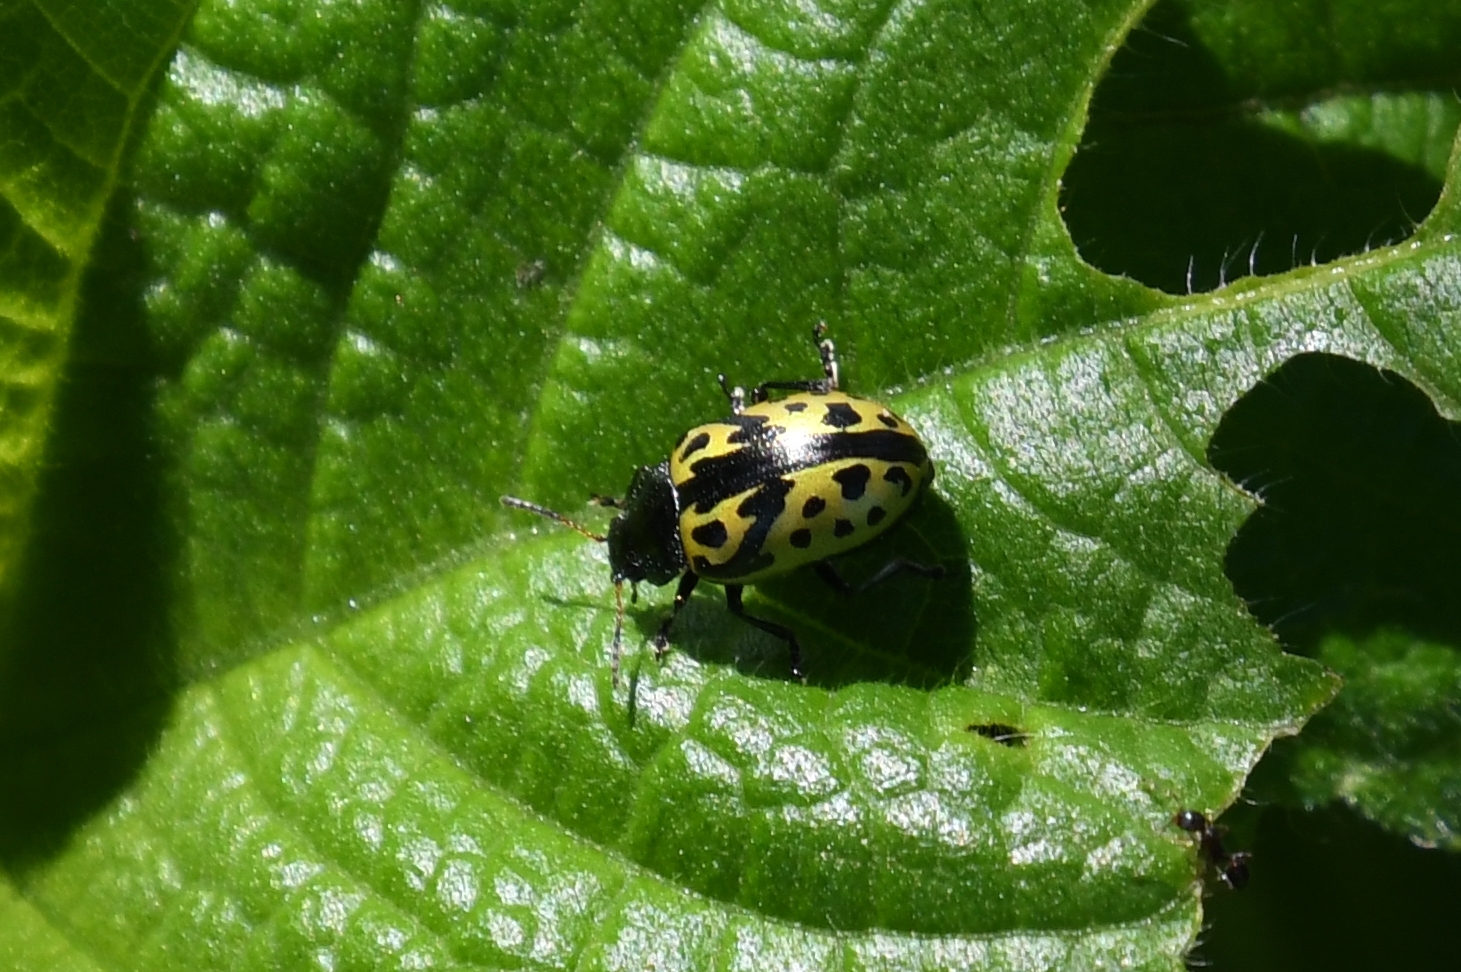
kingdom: Animalia
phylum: Arthropoda
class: Insecta
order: Coleoptera
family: Chrysomelidae
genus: Calligrapha
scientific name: Calligrapha
